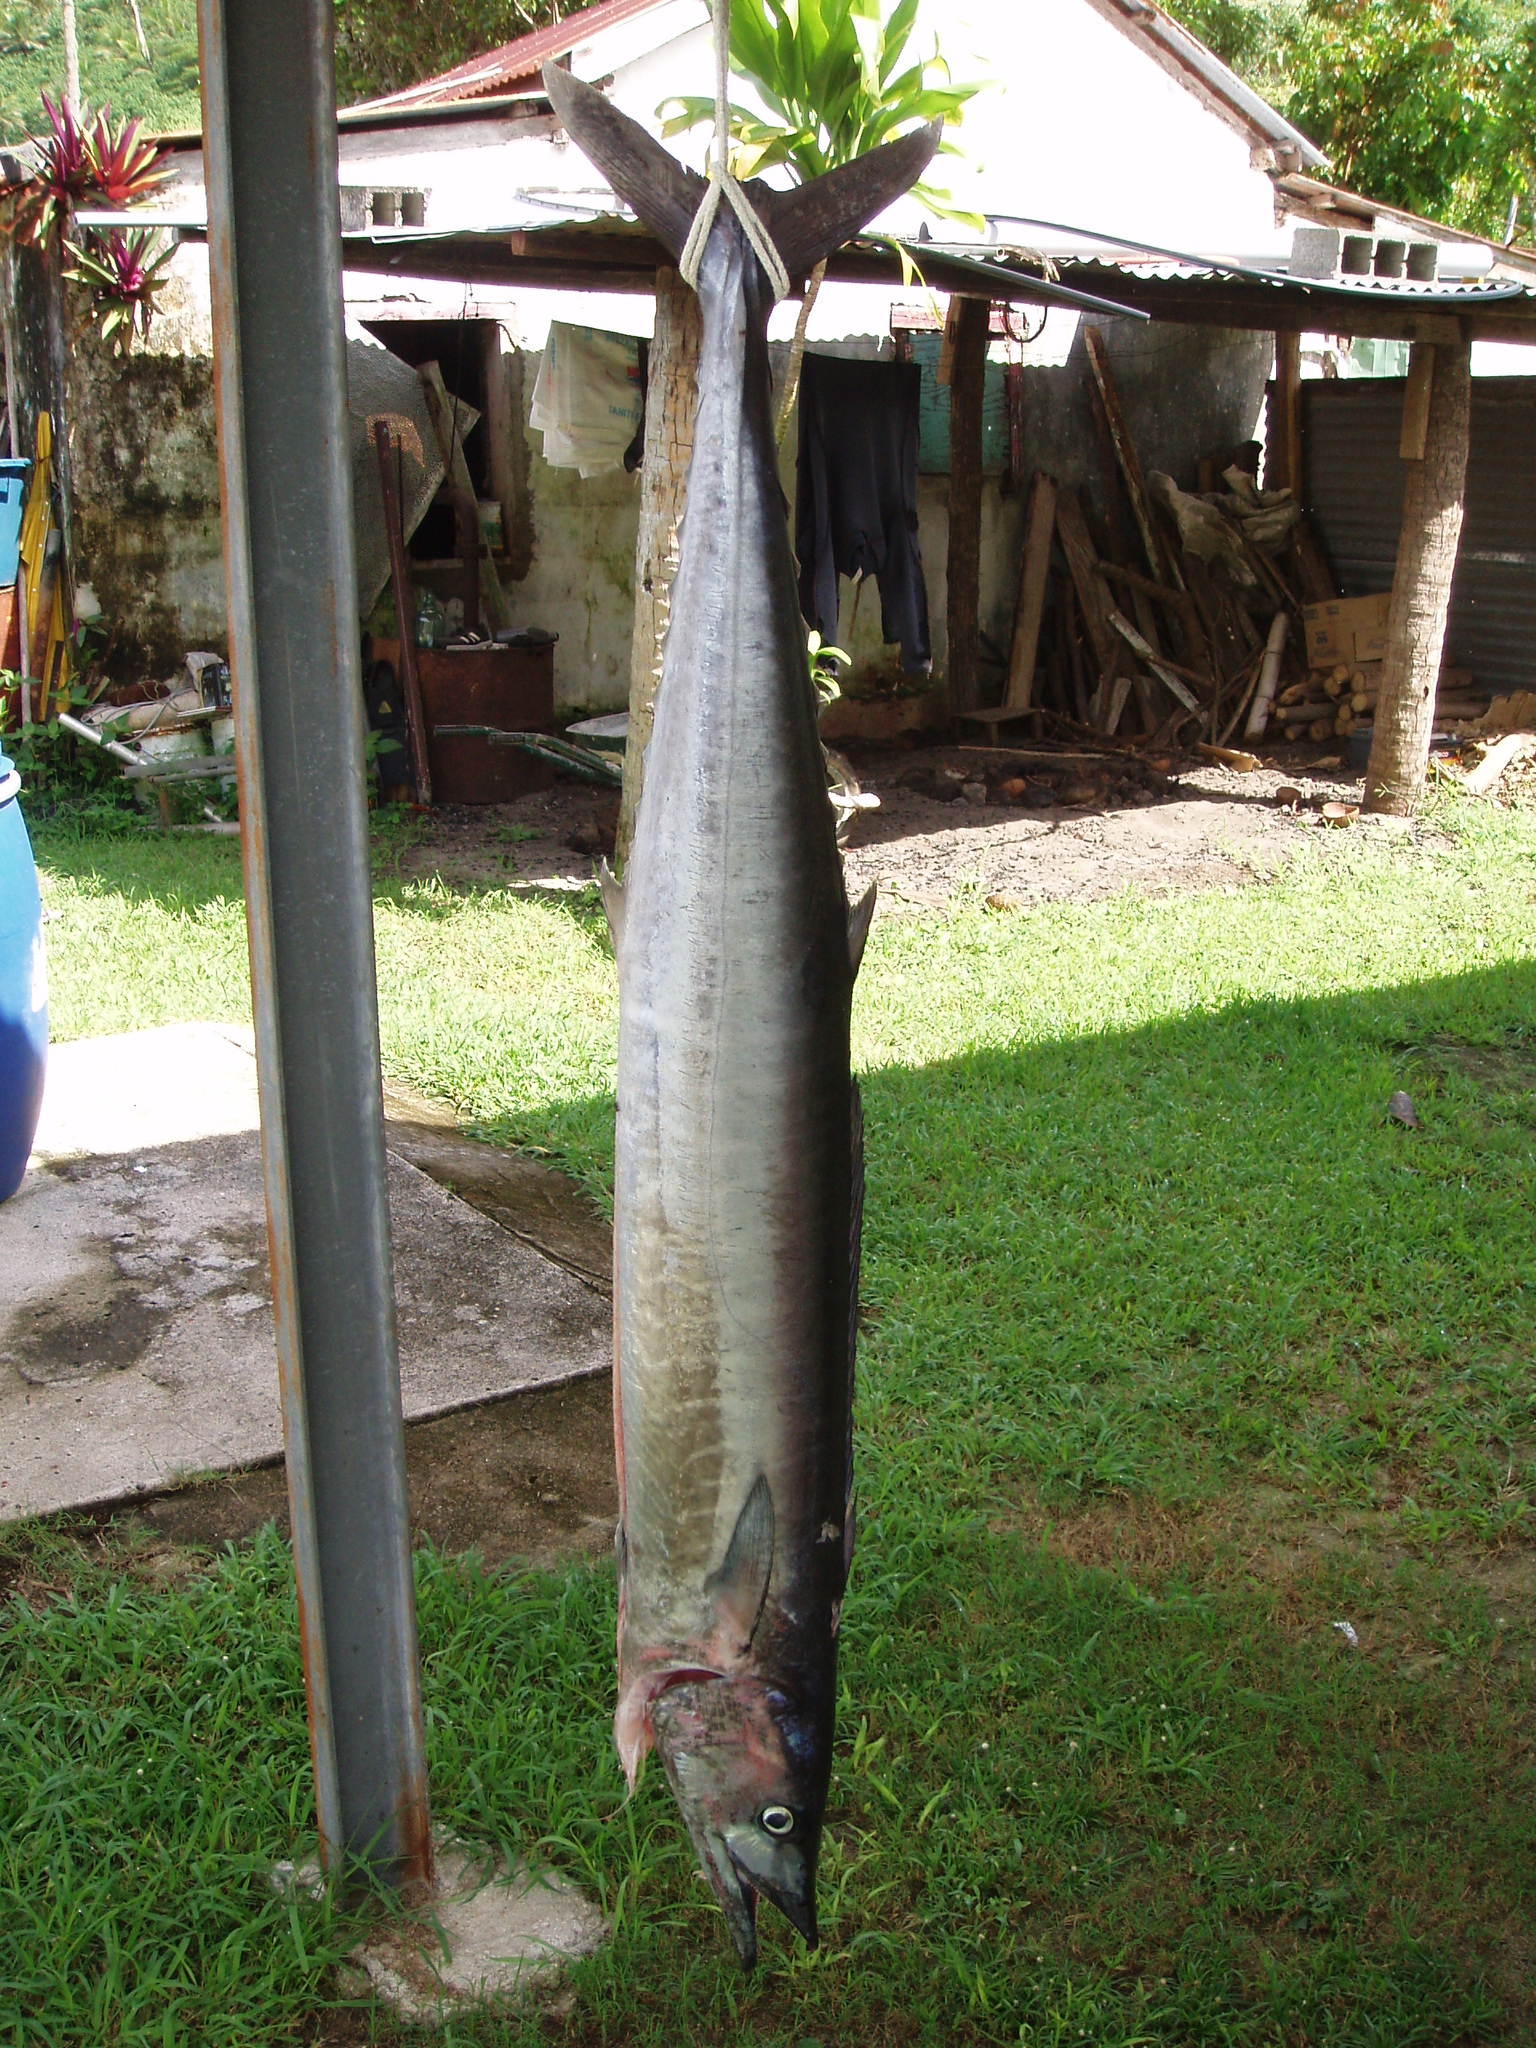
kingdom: Animalia
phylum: Chordata
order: Perciformes
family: Scombridae
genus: Acanthocybium
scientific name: Acanthocybium solandri
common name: Wahoo
